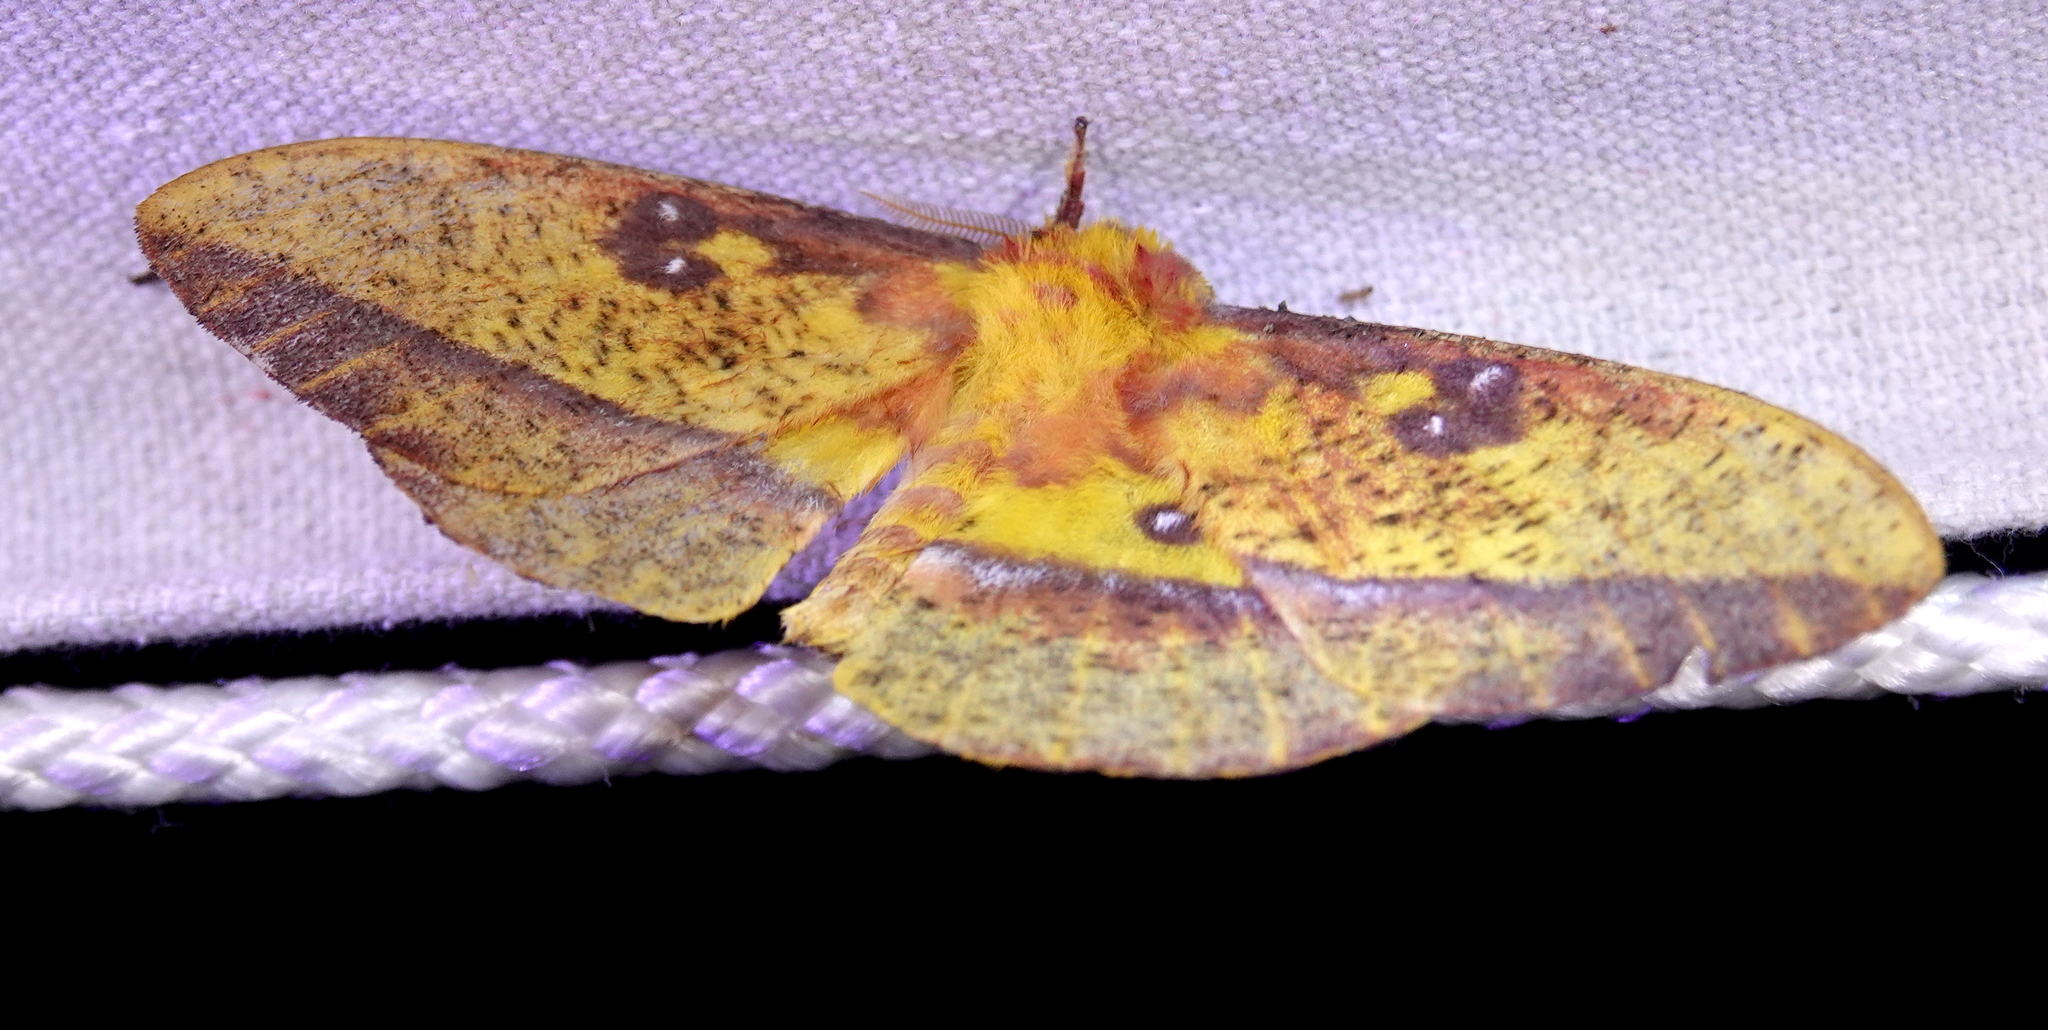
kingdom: Animalia
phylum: Arthropoda
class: Insecta
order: Lepidoptera
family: Saturniidae
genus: Bathyphlebia
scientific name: Bathyphlebia eminens
